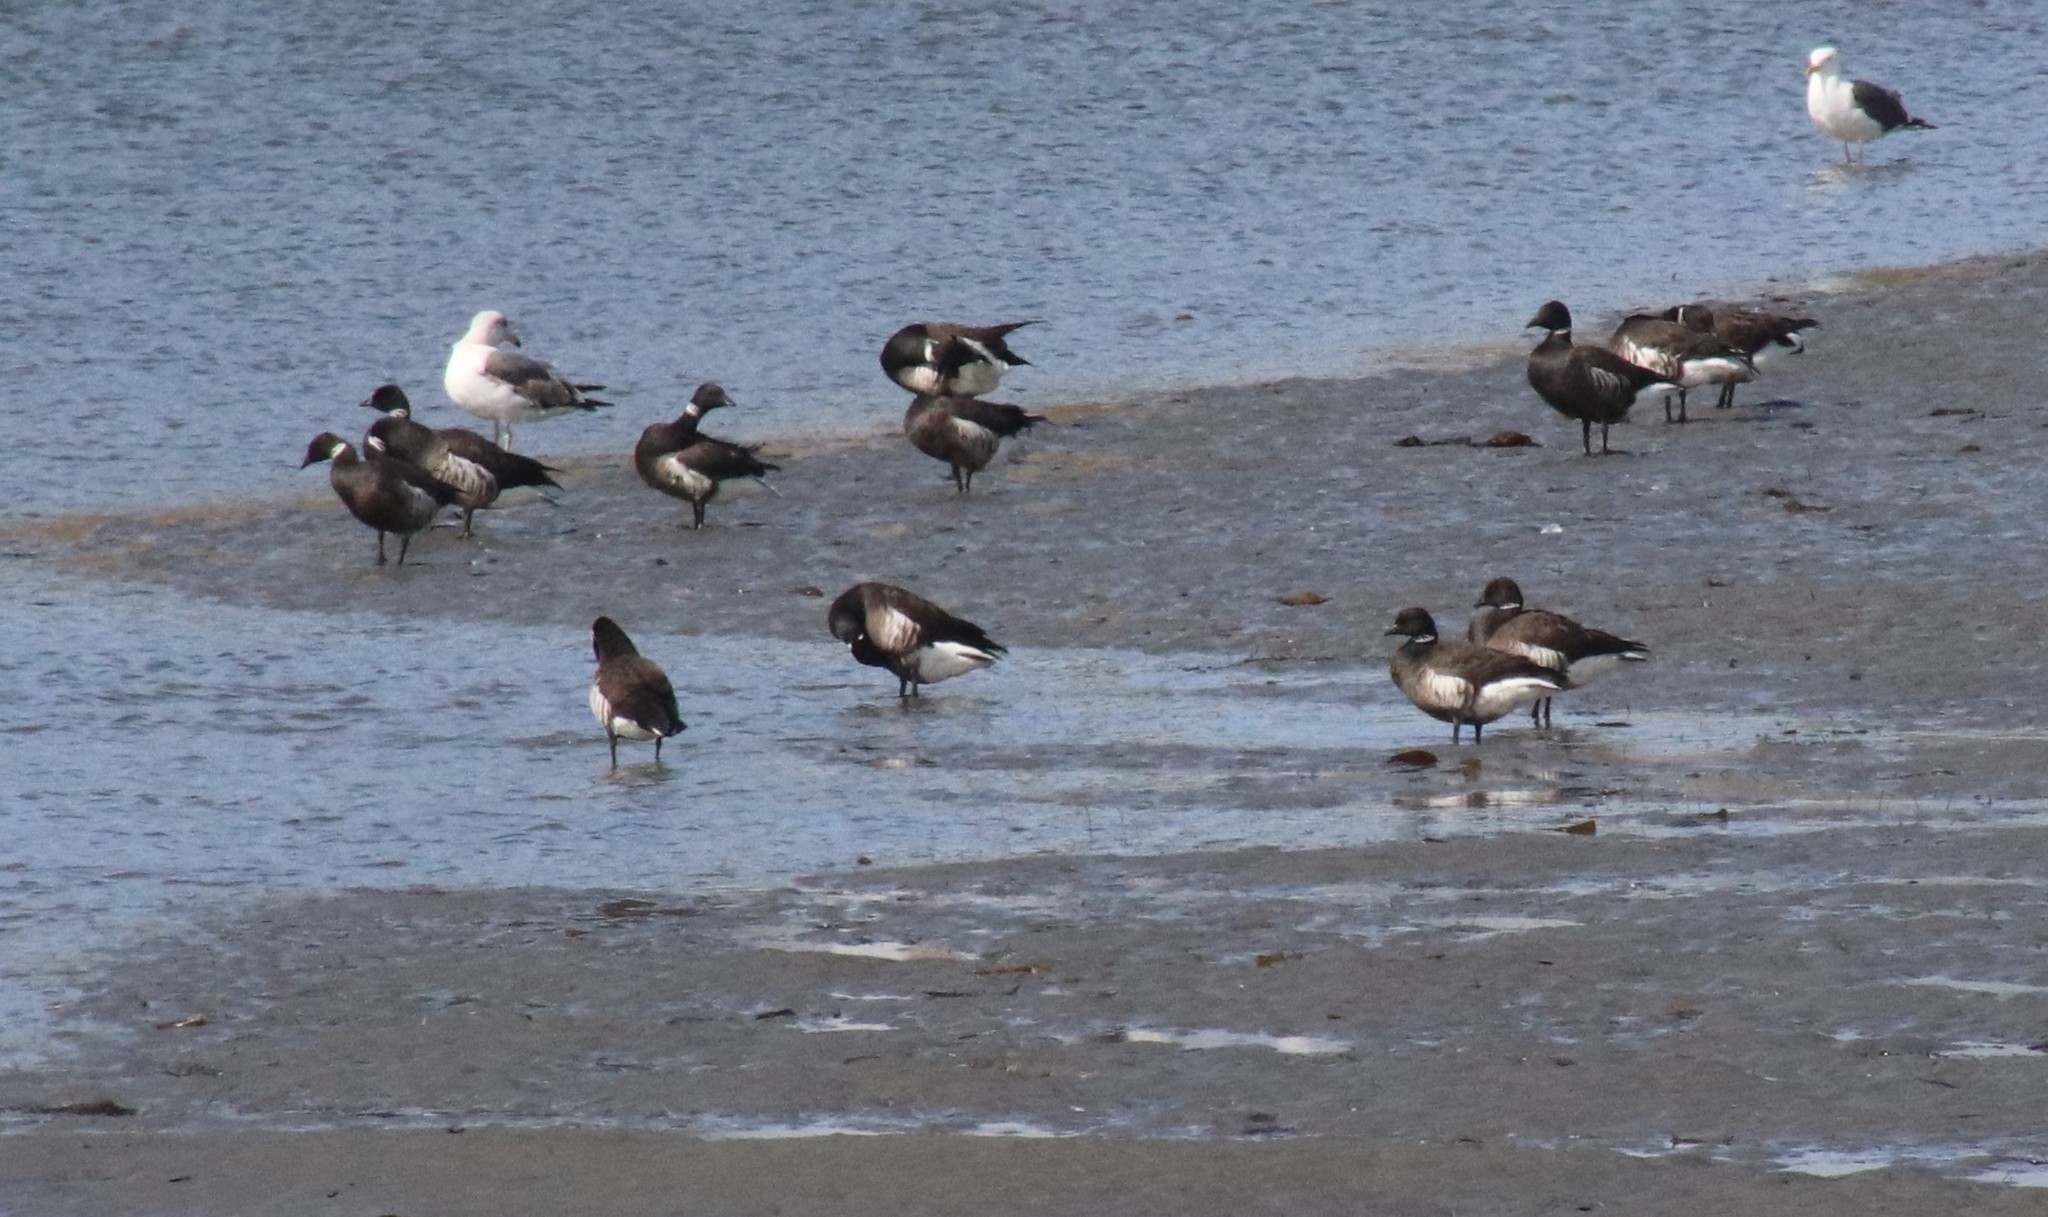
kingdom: Animalia
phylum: Chordata
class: Aves
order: Anseriformes
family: Anatidae
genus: Branta
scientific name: Branta bernicla
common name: Brant goose
